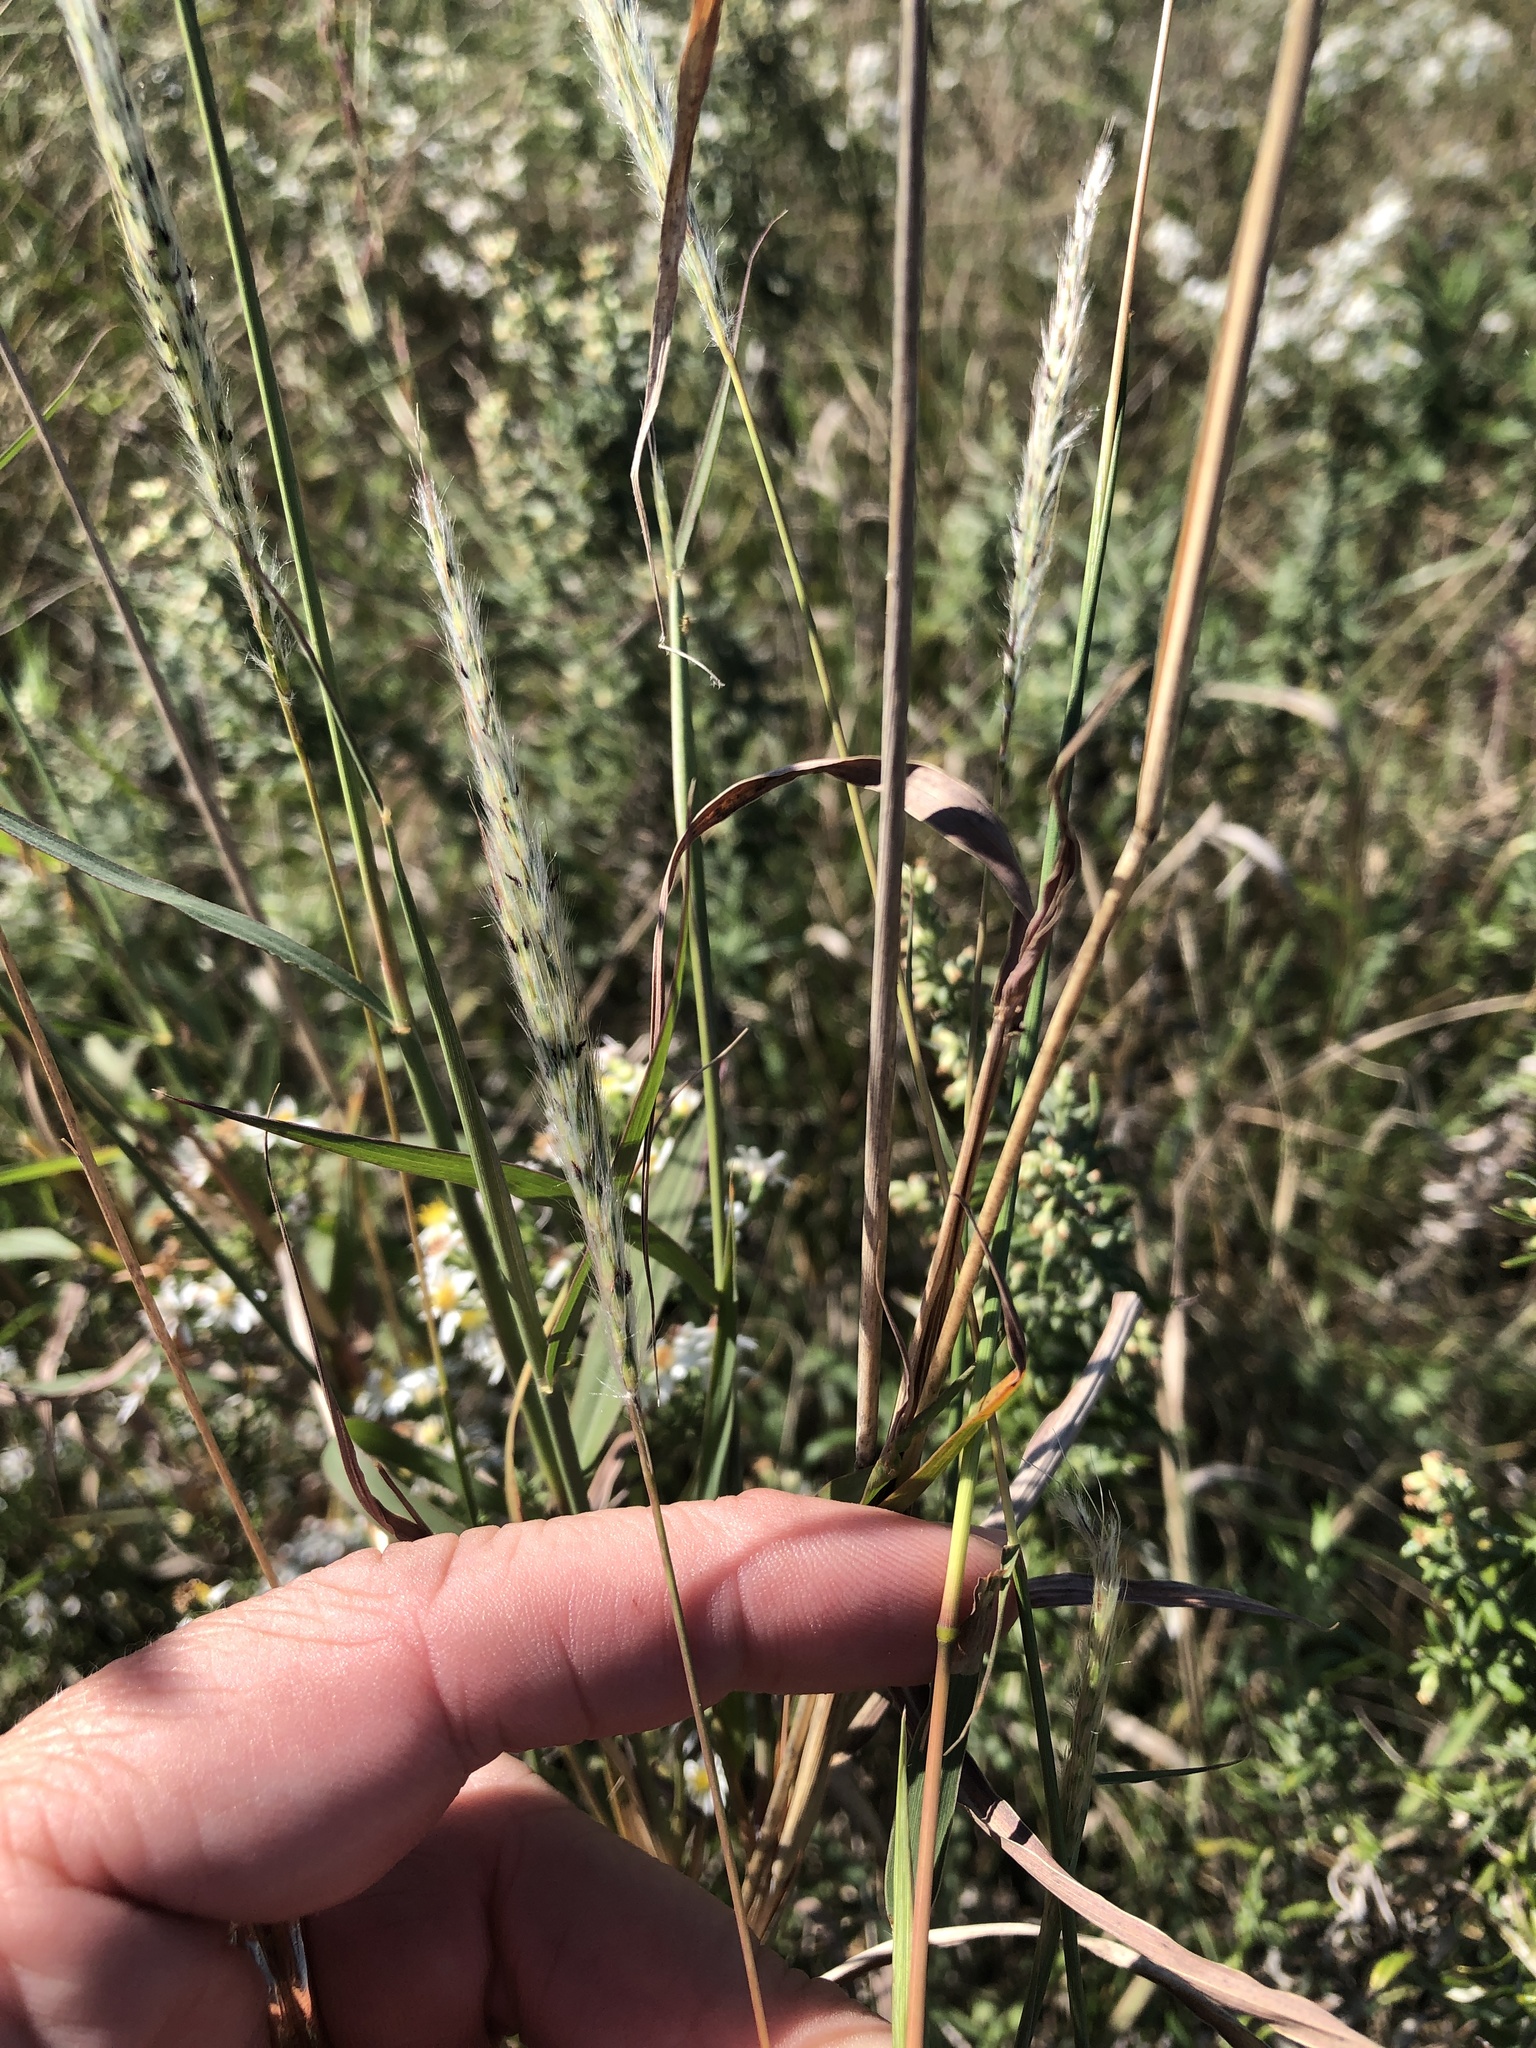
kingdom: Plantae
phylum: Tracheophyta
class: Liliopsida
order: Poales
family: Poaceae
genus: Bothriochloa
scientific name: Bothriochloa torreyana
